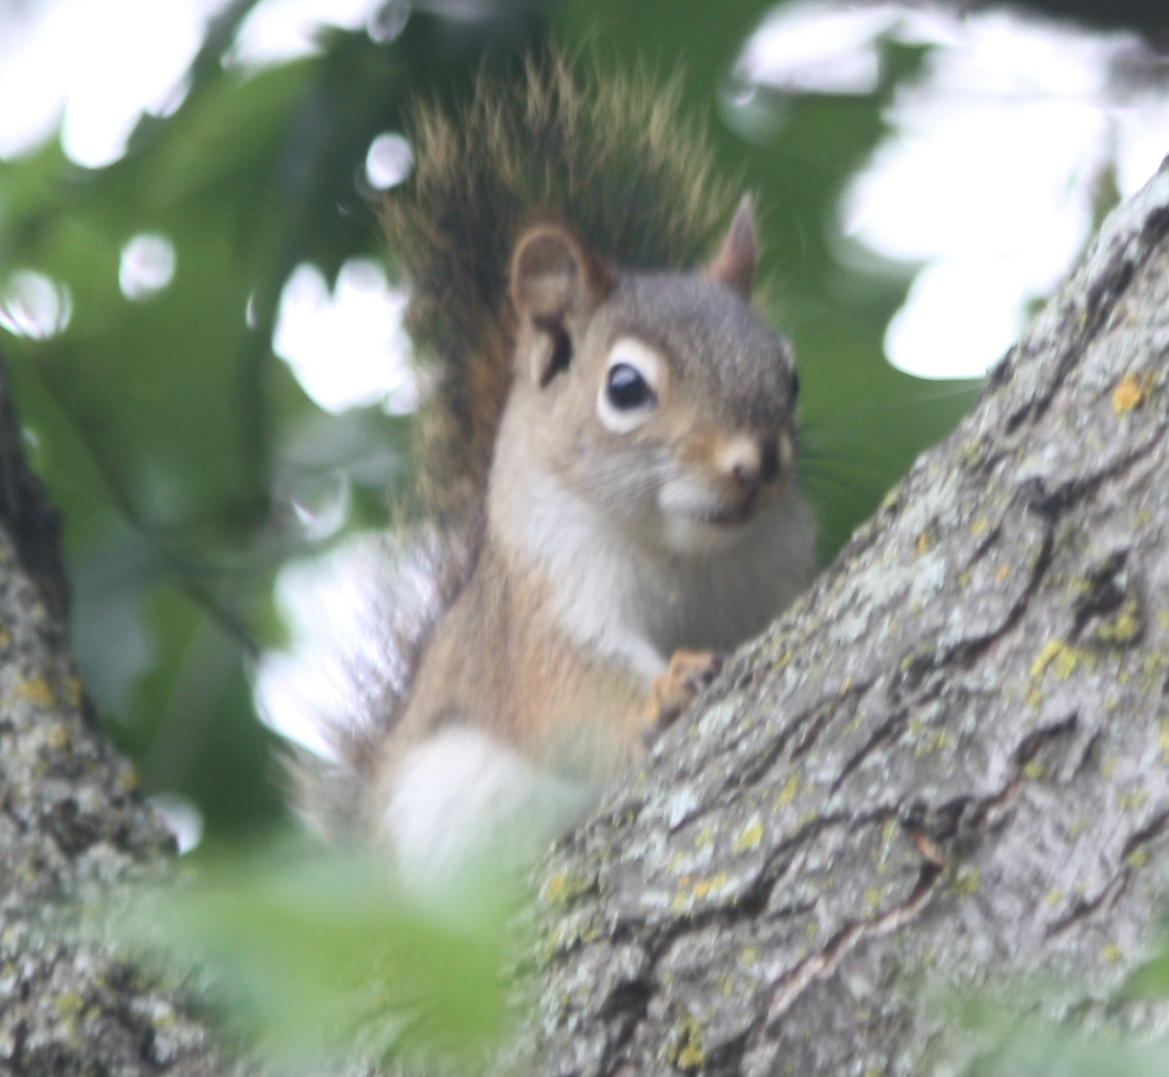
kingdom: Animalia
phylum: Chordata
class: Mammalia
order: Rodentia
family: Sciuridae
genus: Tamiasciurus
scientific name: Tamiasciurus hudsonicus
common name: Red squirrel
